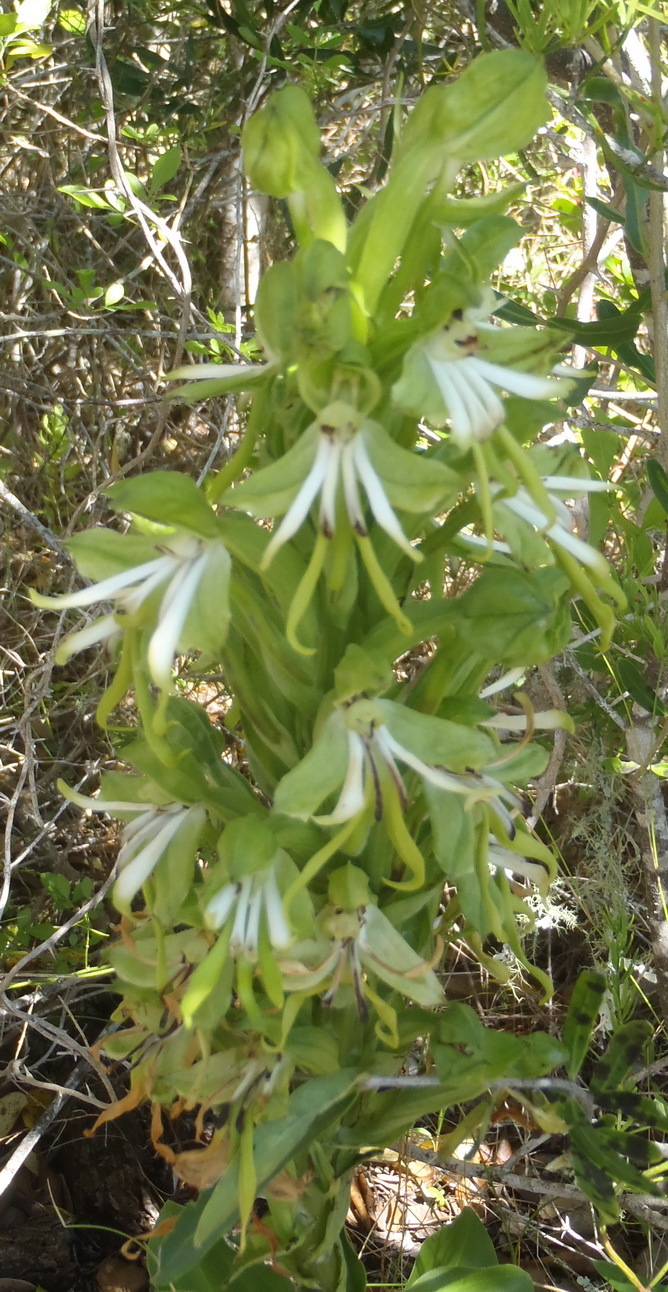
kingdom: Plantae
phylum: Tracheophyta
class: Liliopsida
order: Asparagales
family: Orchidaceae
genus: Bonatea
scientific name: Bonatea speciosa
